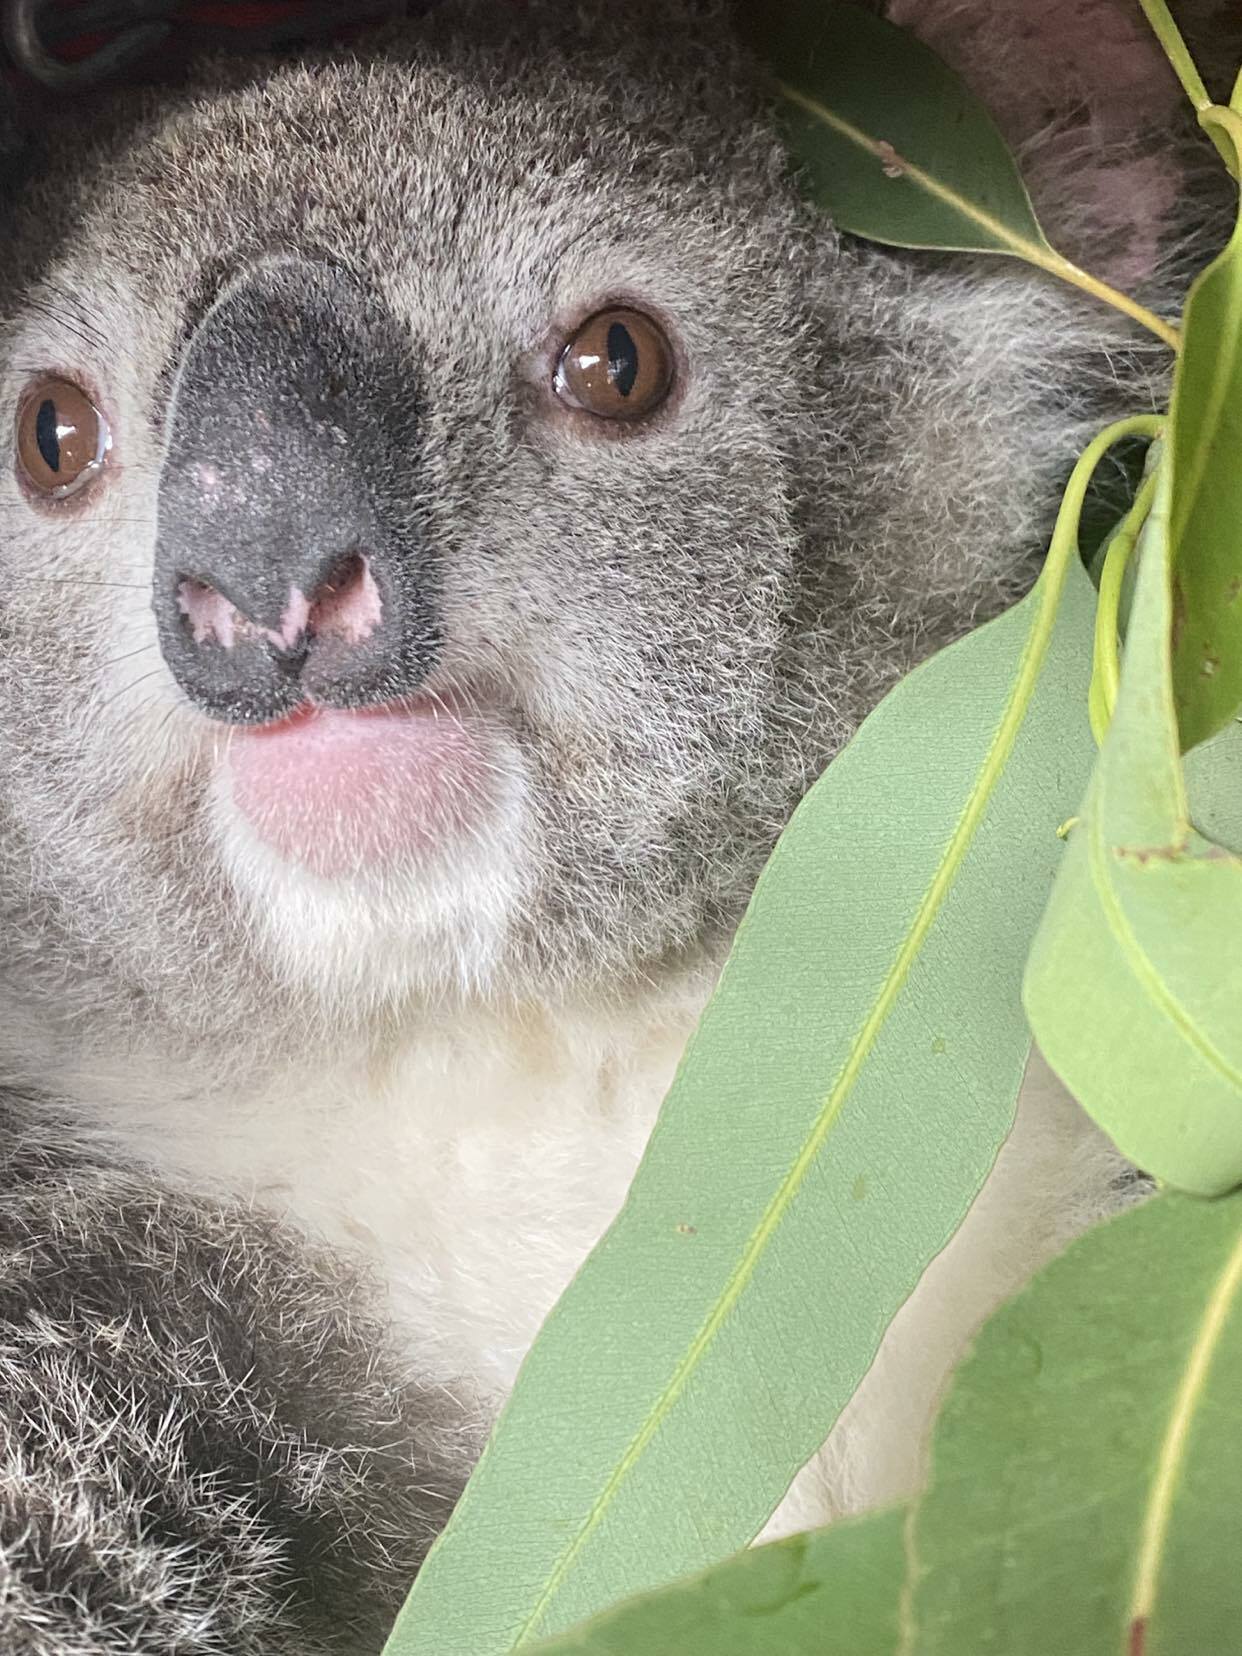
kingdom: Animalia
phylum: Chordata
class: Mammalia
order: Diprotodontia
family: Phascolarctidae
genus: Phascolarctos
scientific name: Phascolarctos cinereus
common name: Koala
